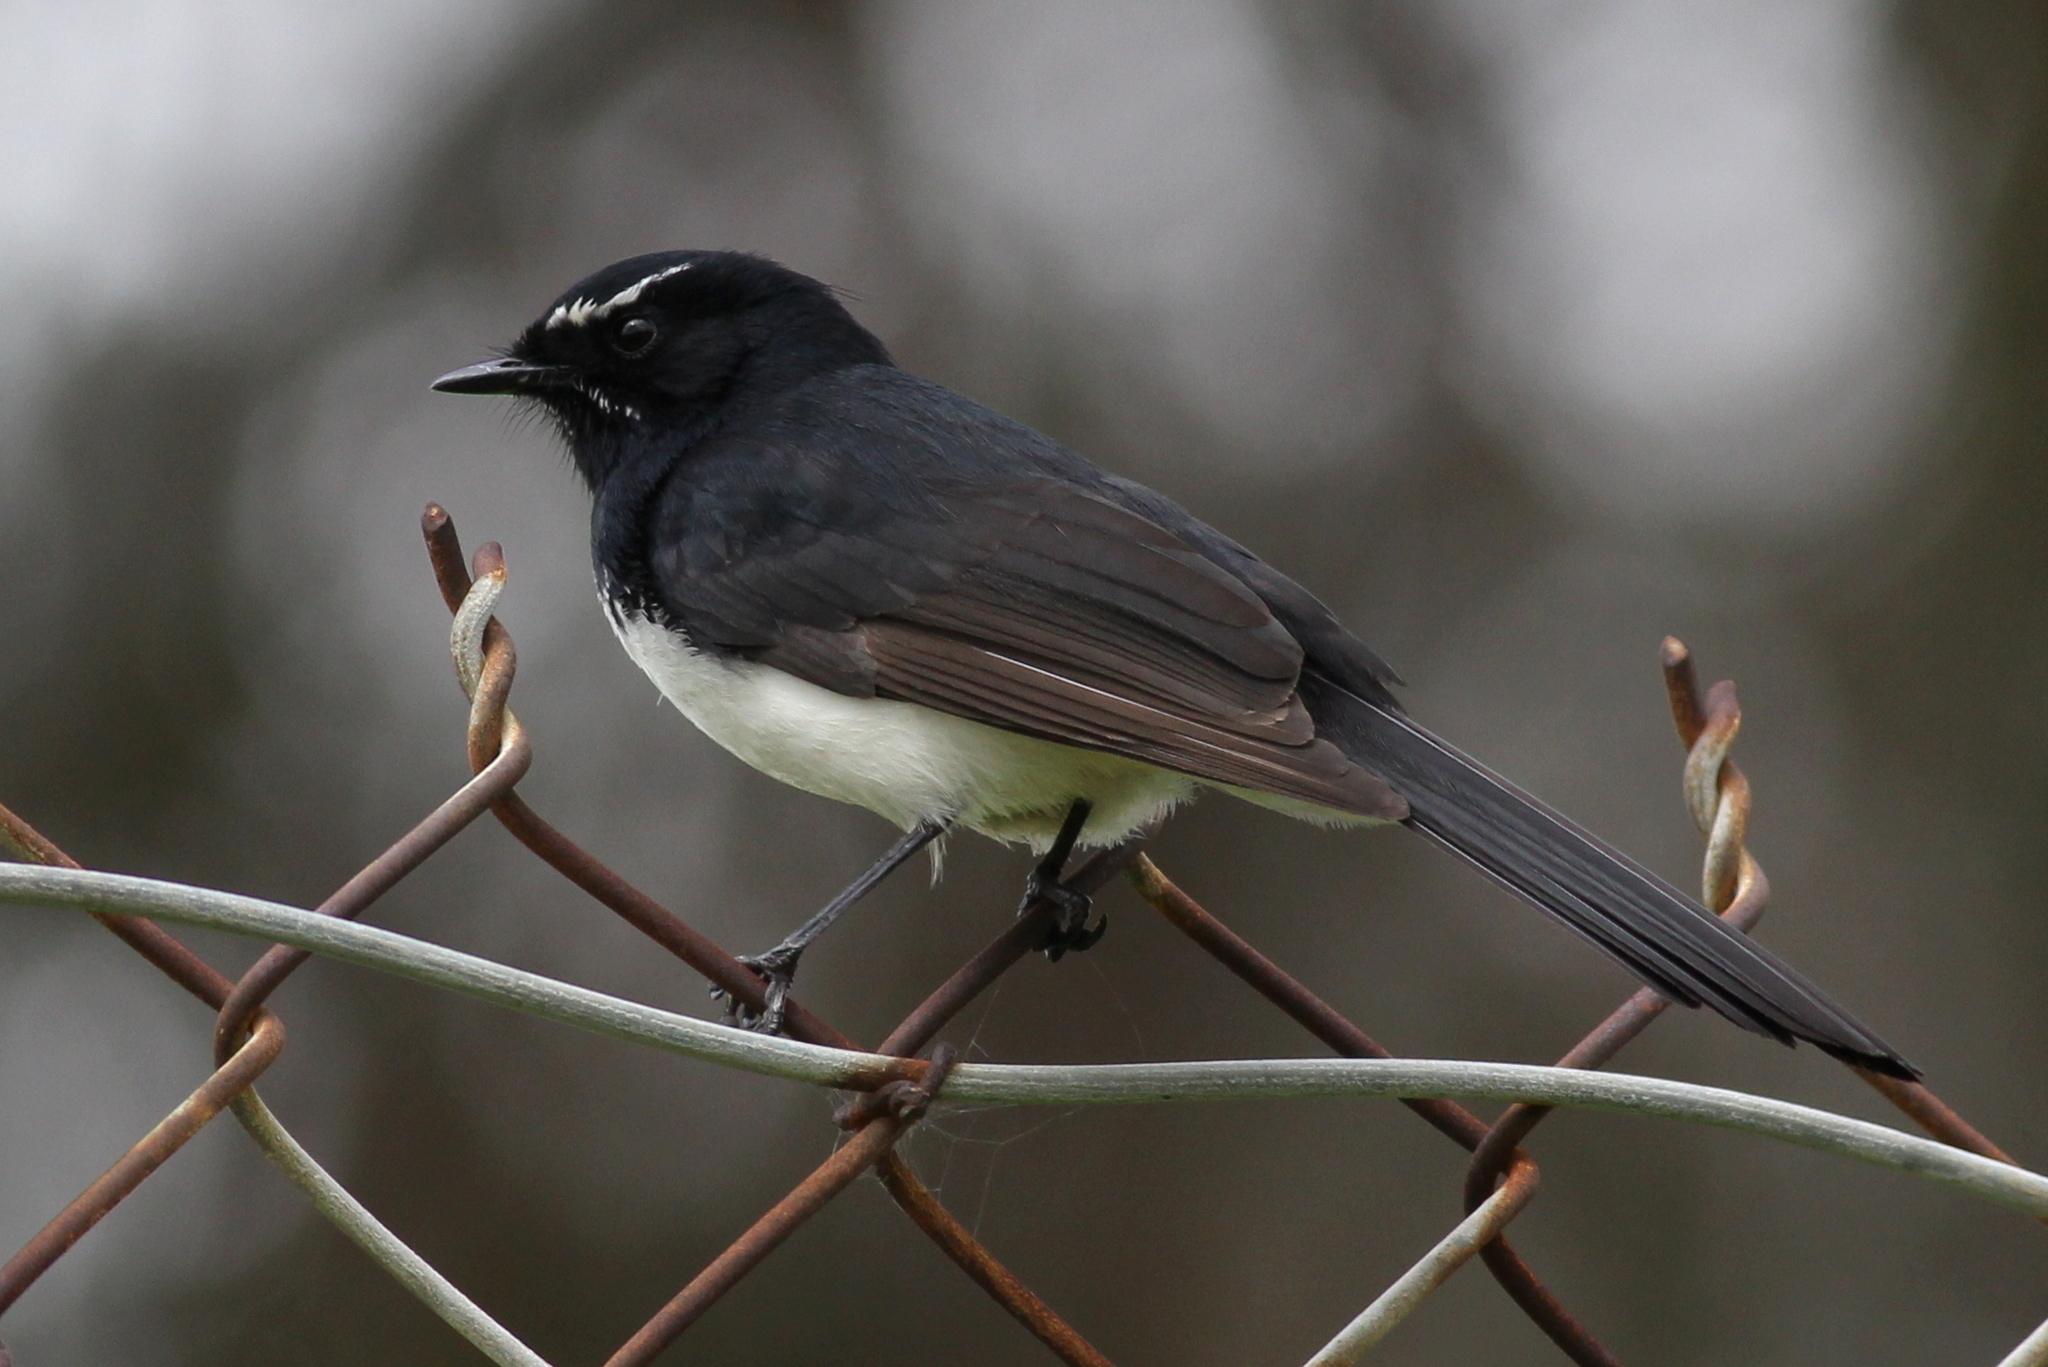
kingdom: Animalia
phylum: Chordata
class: Aves
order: Passeriformes
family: Rhipiduridae
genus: Rhipidura
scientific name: Rhipidura leucophrys
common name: Willie wagtail
